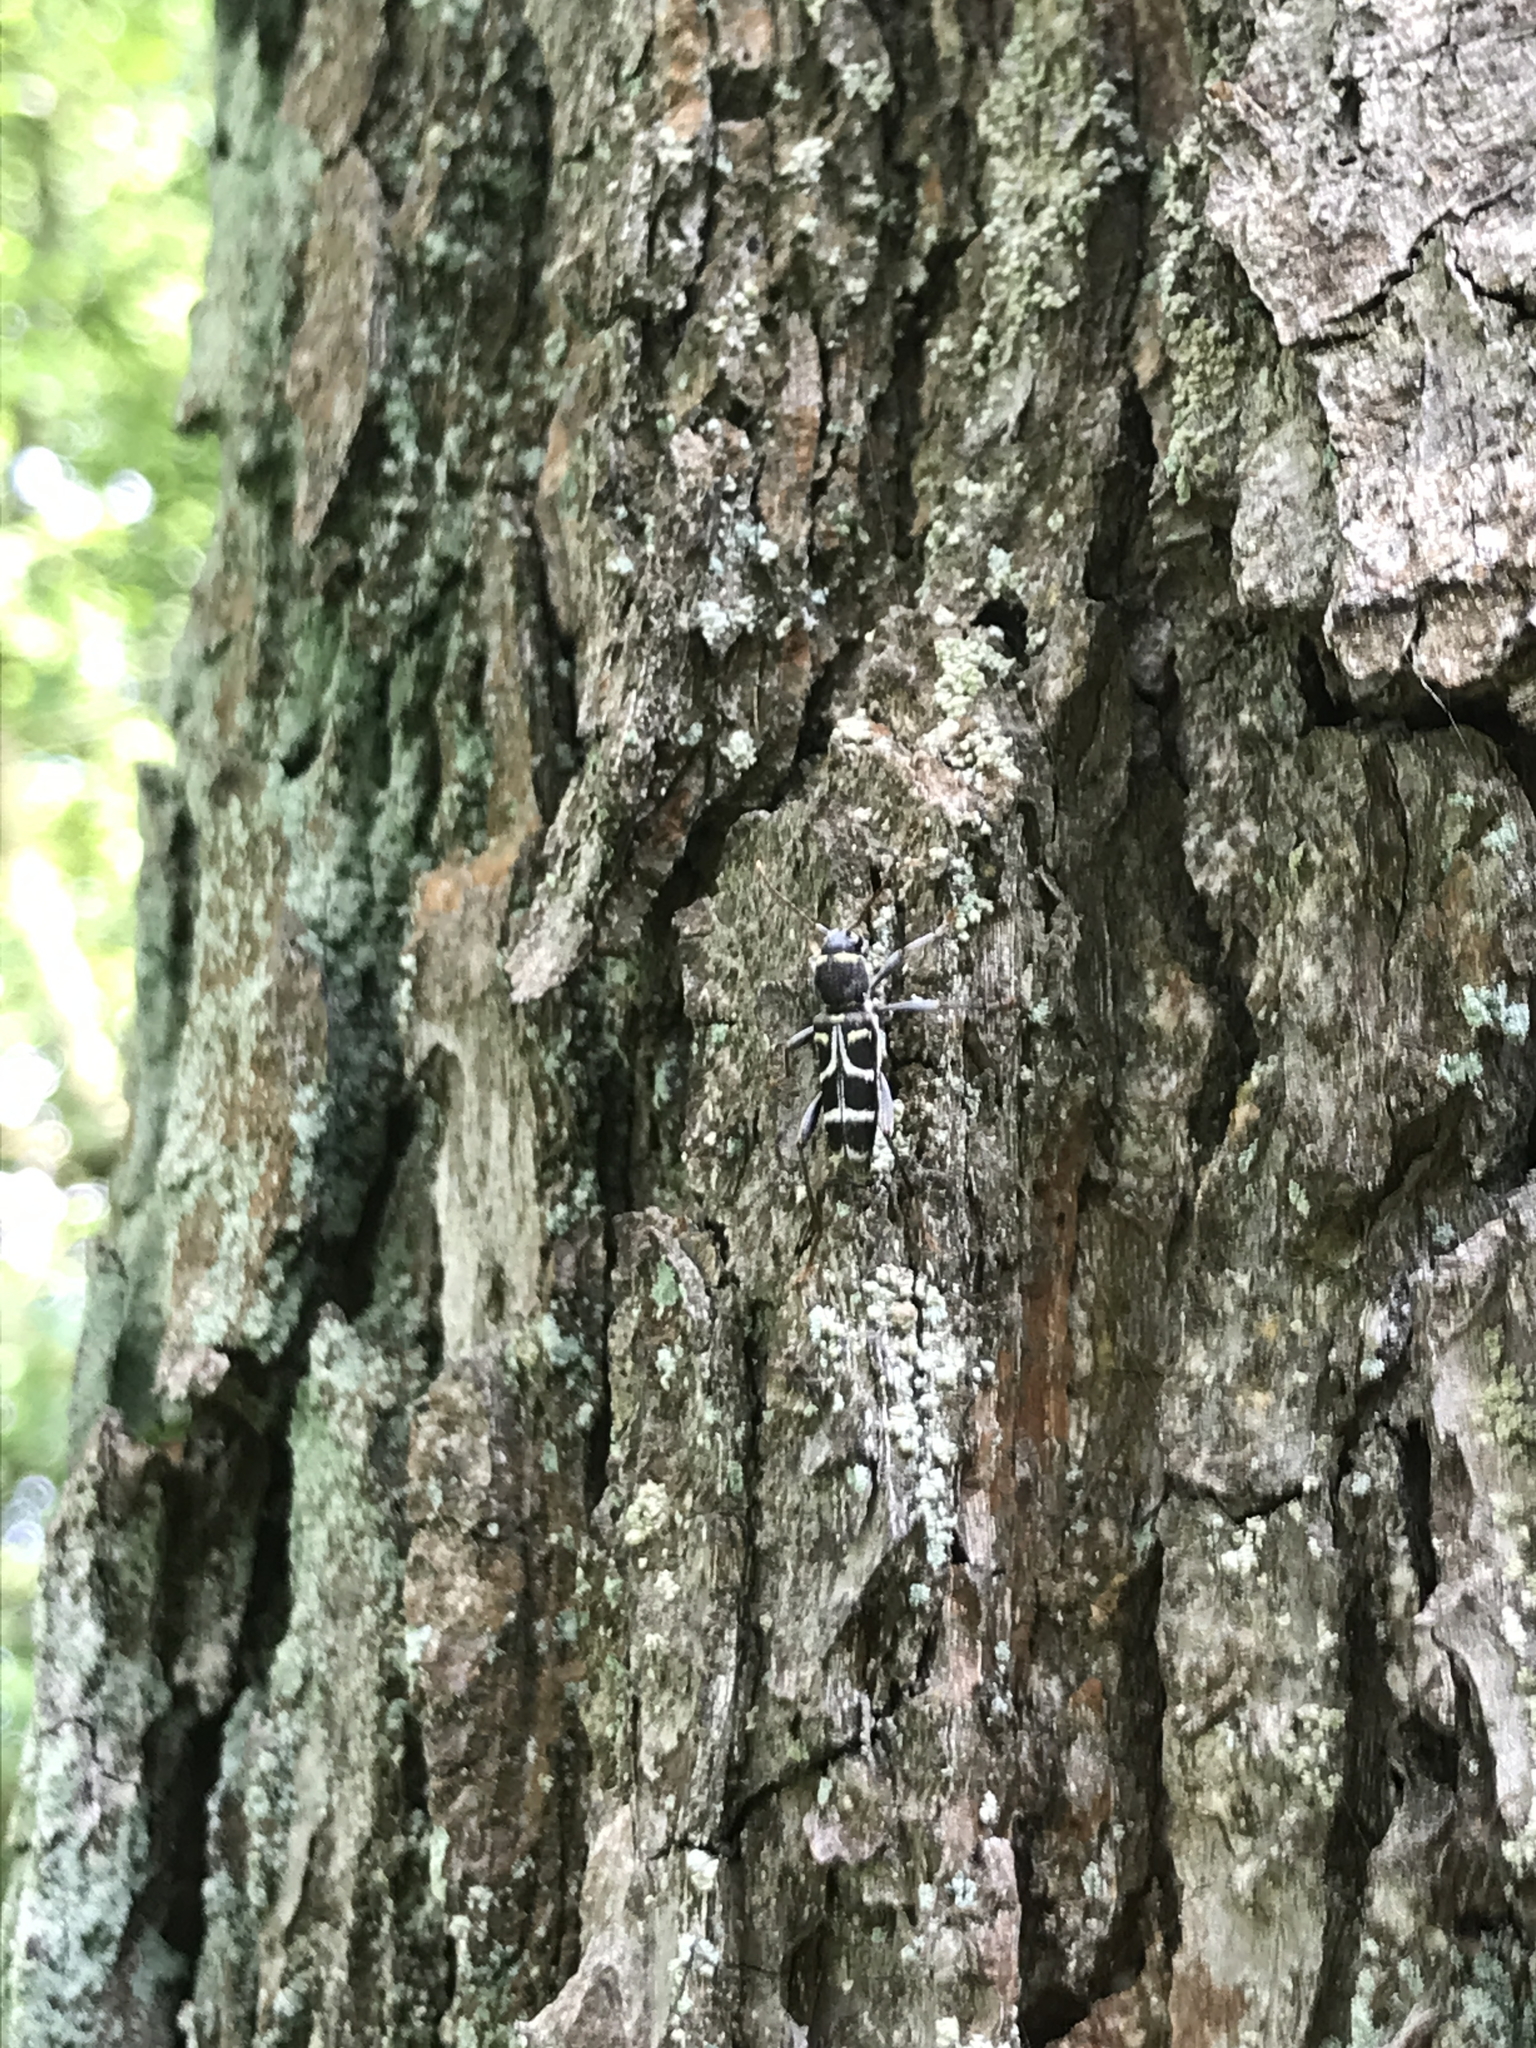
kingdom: Animalia
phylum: Arthropoda
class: Insecta
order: Coleoptera
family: Cerambycidae
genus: Xylotrechus
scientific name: Xylotrechus ibex
